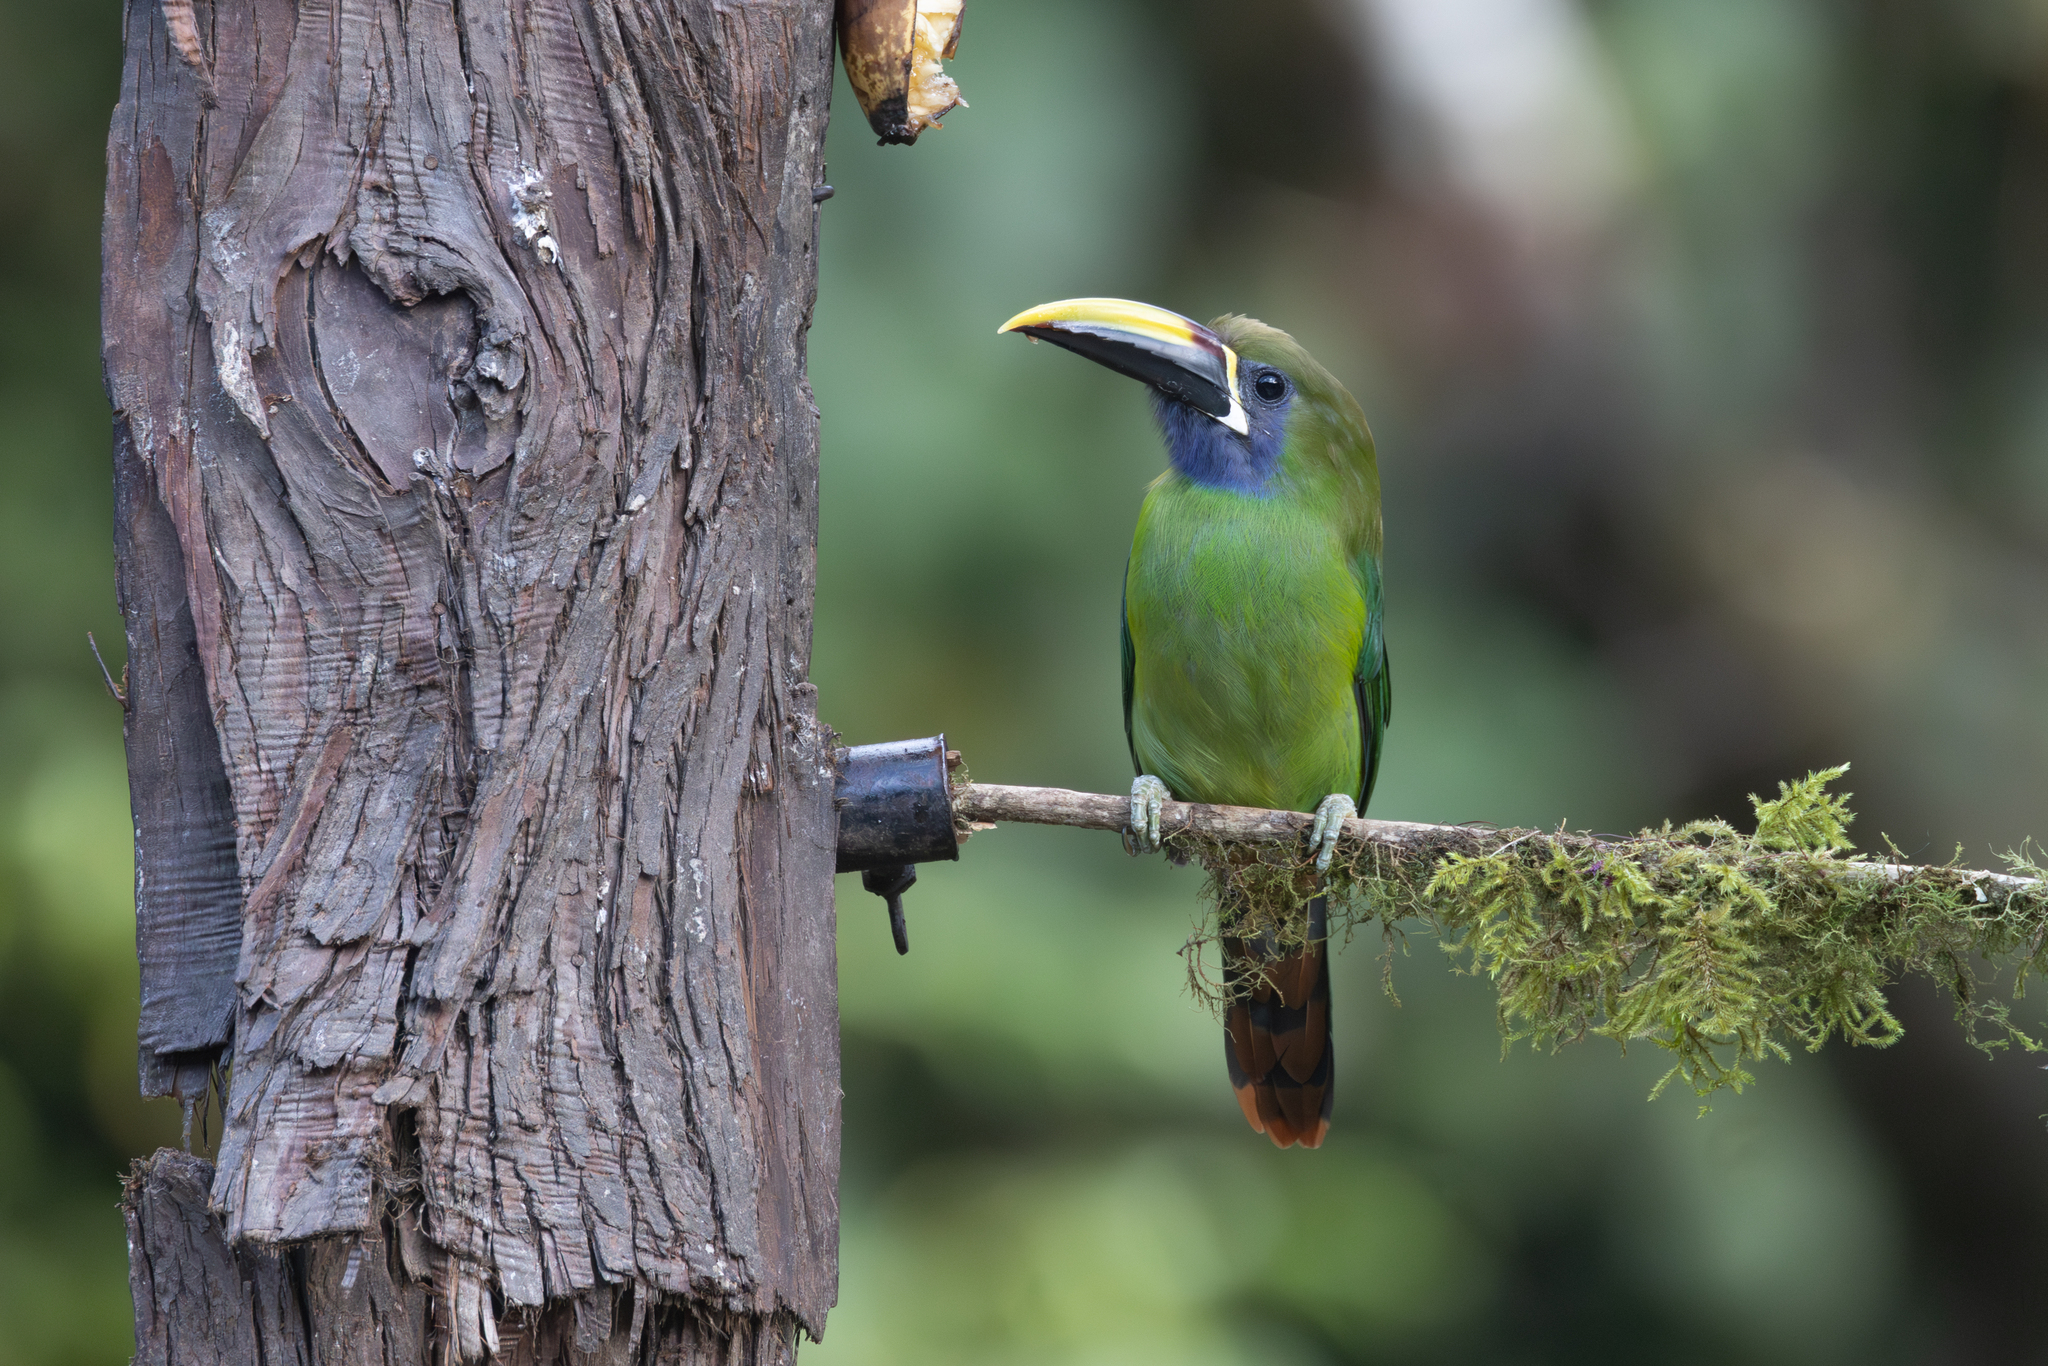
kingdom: Animalia
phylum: Chordata
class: Aves
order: Piciformes
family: Ramphastidae
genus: Aulacorhynchus
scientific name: Aulacorhynchus prasinus
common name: Emerald toucanet
